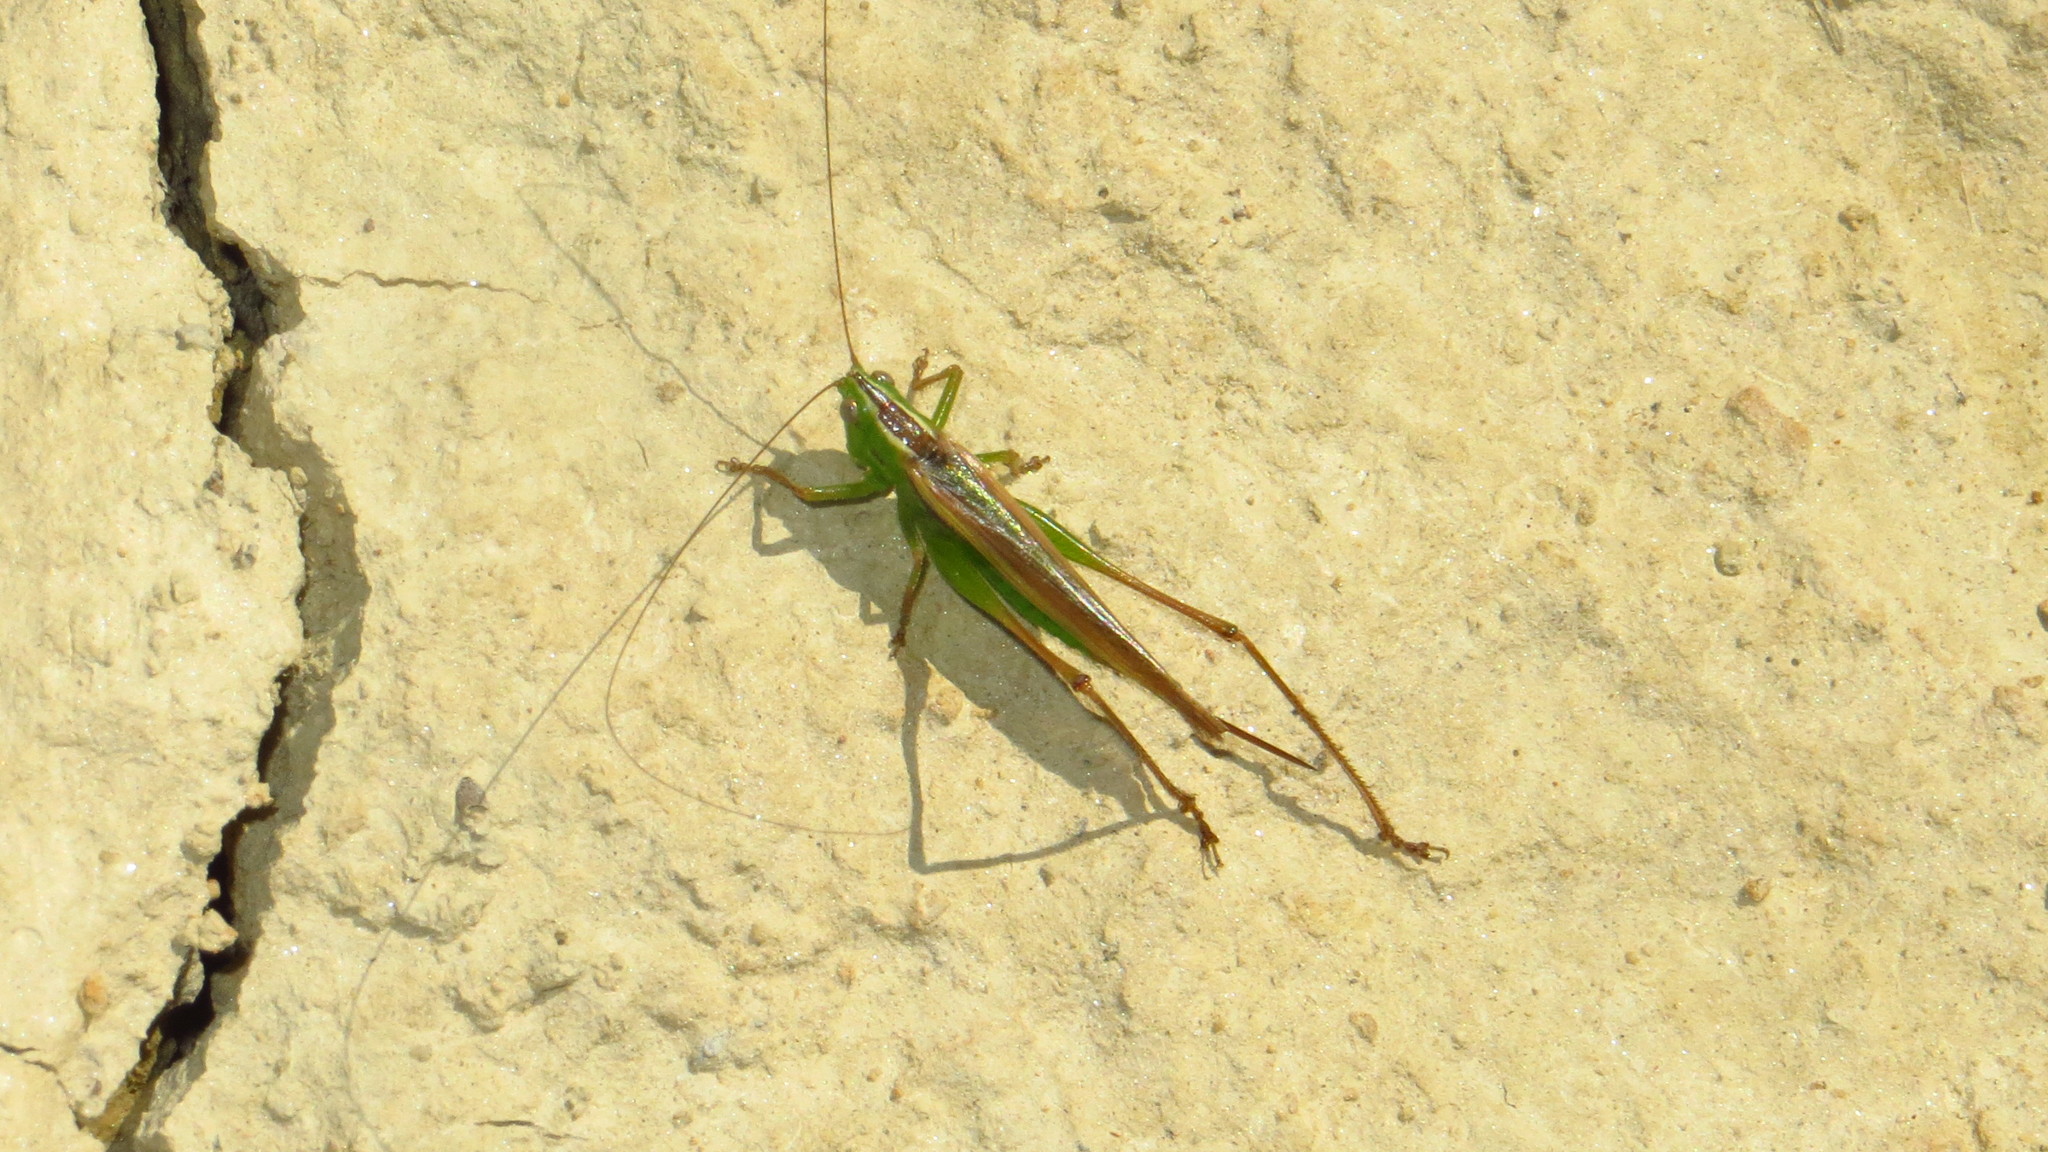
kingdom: Animalia
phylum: Arthropoda
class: Insecta
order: Orthoptera
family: Tettigoniidae
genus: Conocephalus
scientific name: Conocephalus bilineatus
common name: Small meadow katydid
